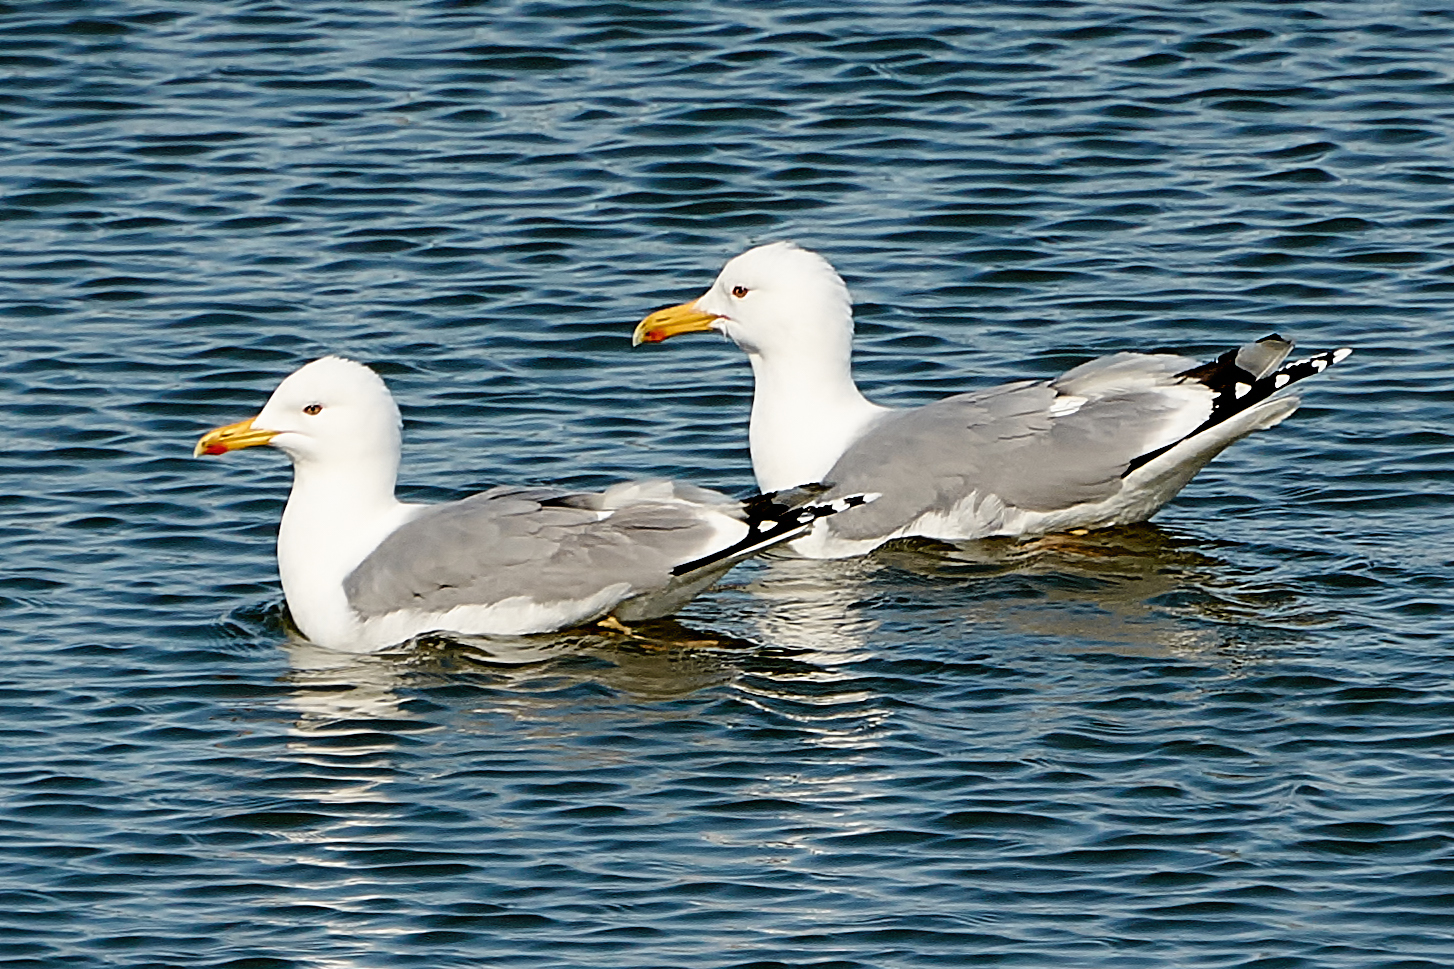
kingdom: Animalia
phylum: Chordata
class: Aves
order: Charadriiformes
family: Laridae
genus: Larus
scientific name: Larus cachinnans
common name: Caspian gull
